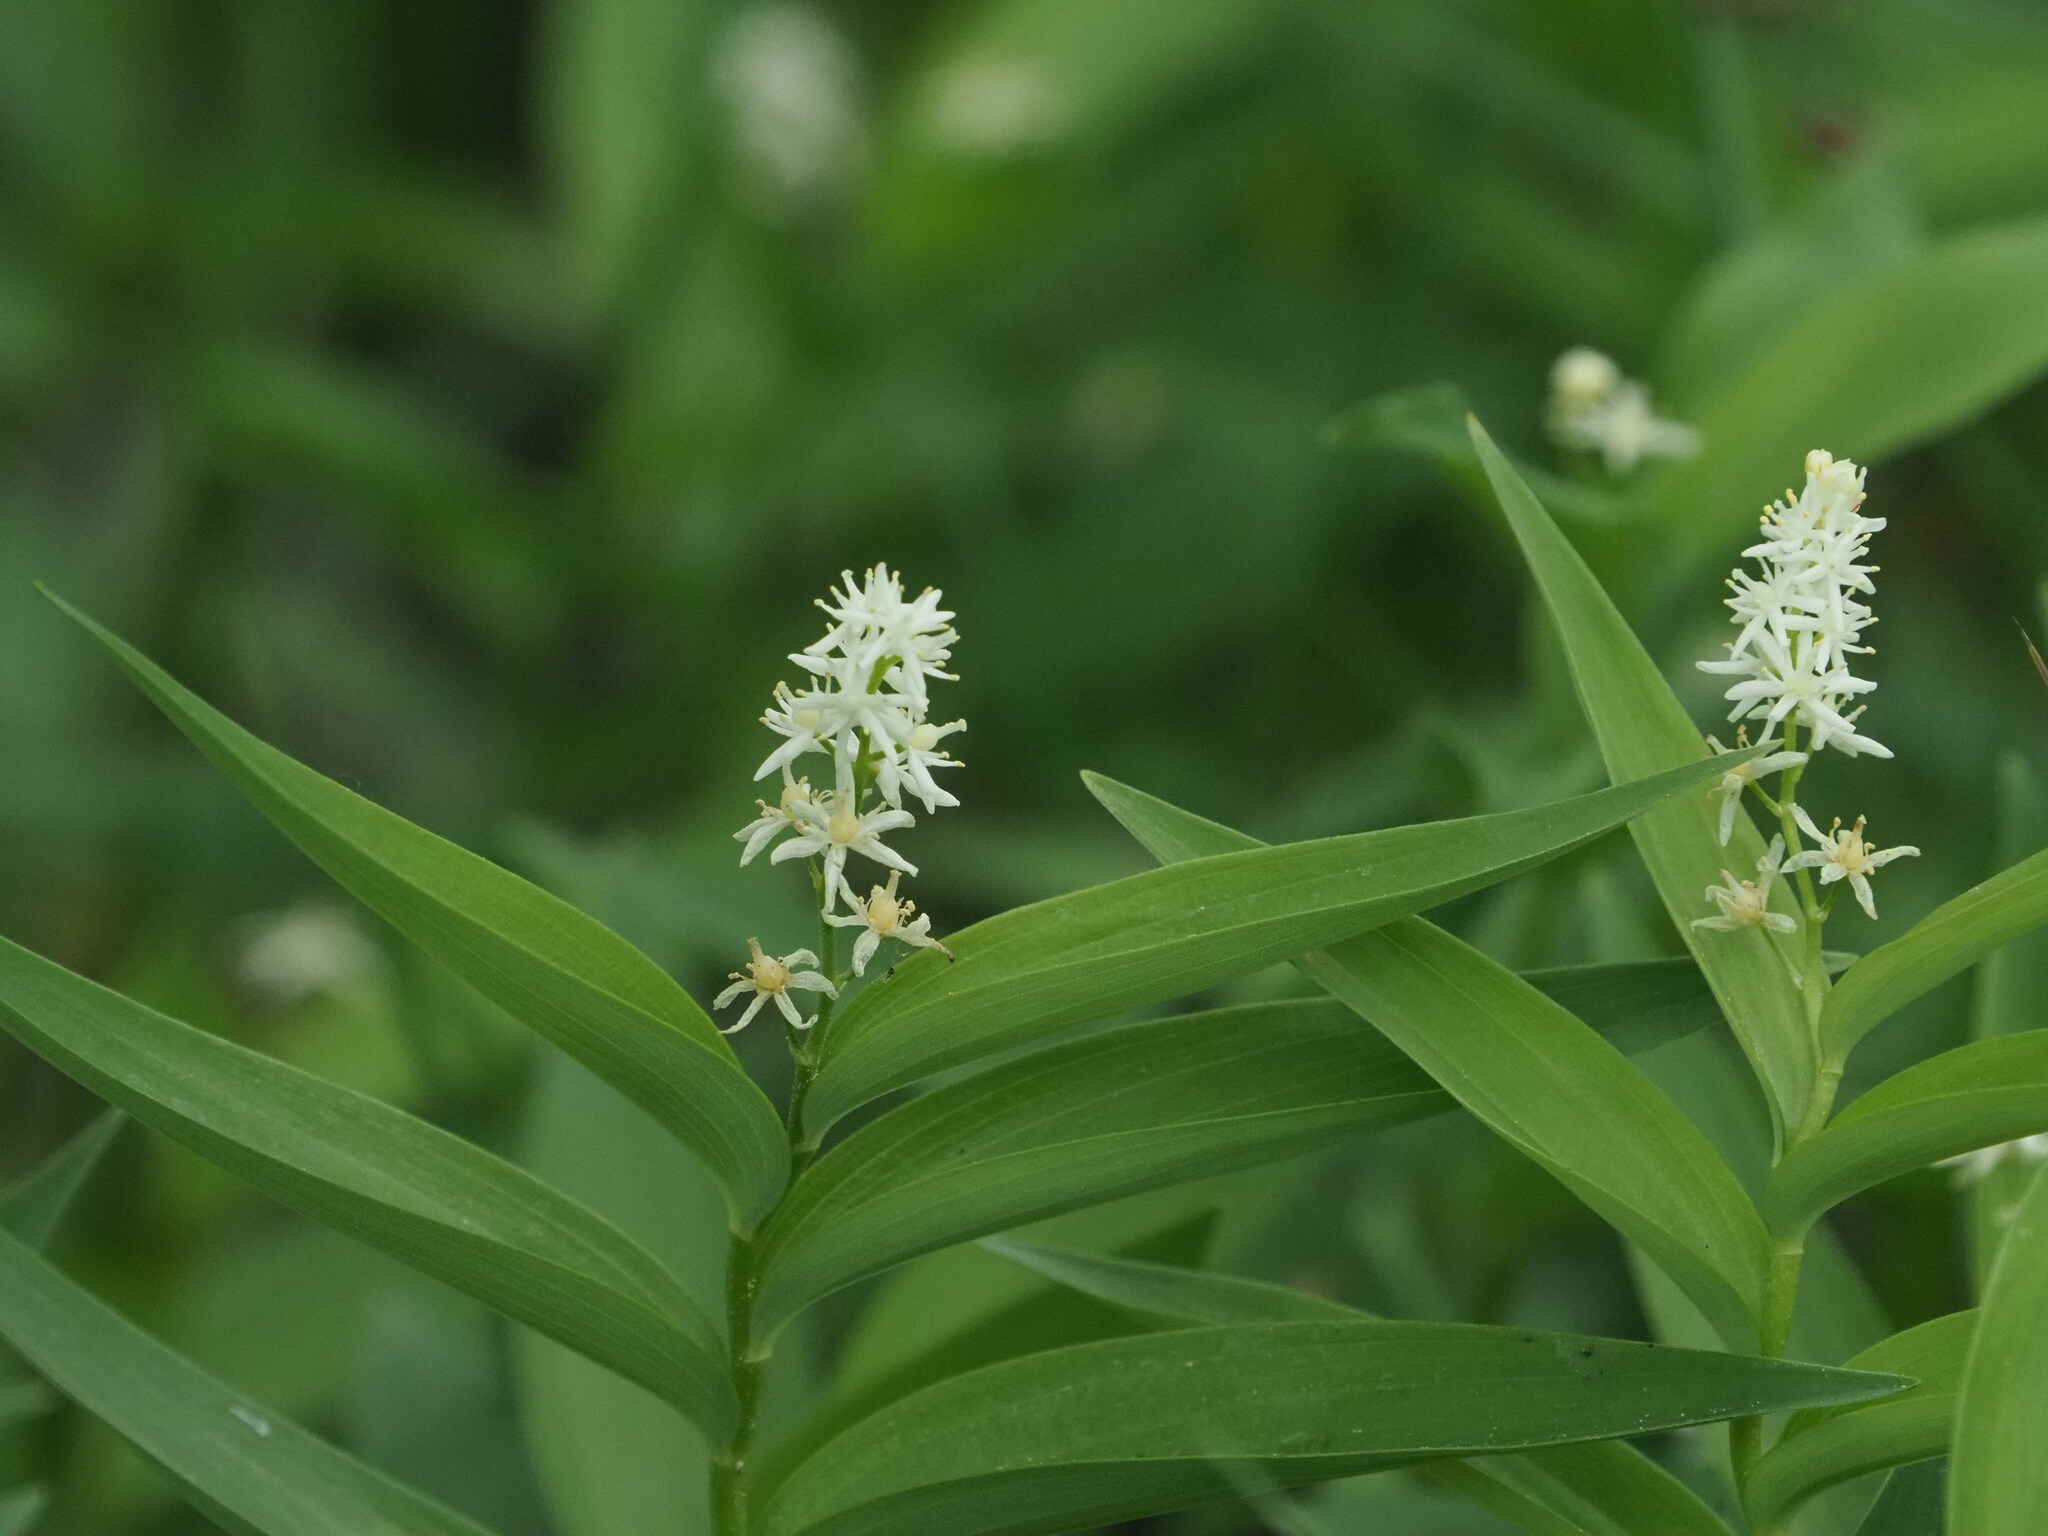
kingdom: Plantae
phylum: Tracheophyta
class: Liliopsida
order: Asparagales
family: Asparagaceae
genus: Maianthemum
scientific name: Maianthemum stellatum
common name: Little false solomon's seal
